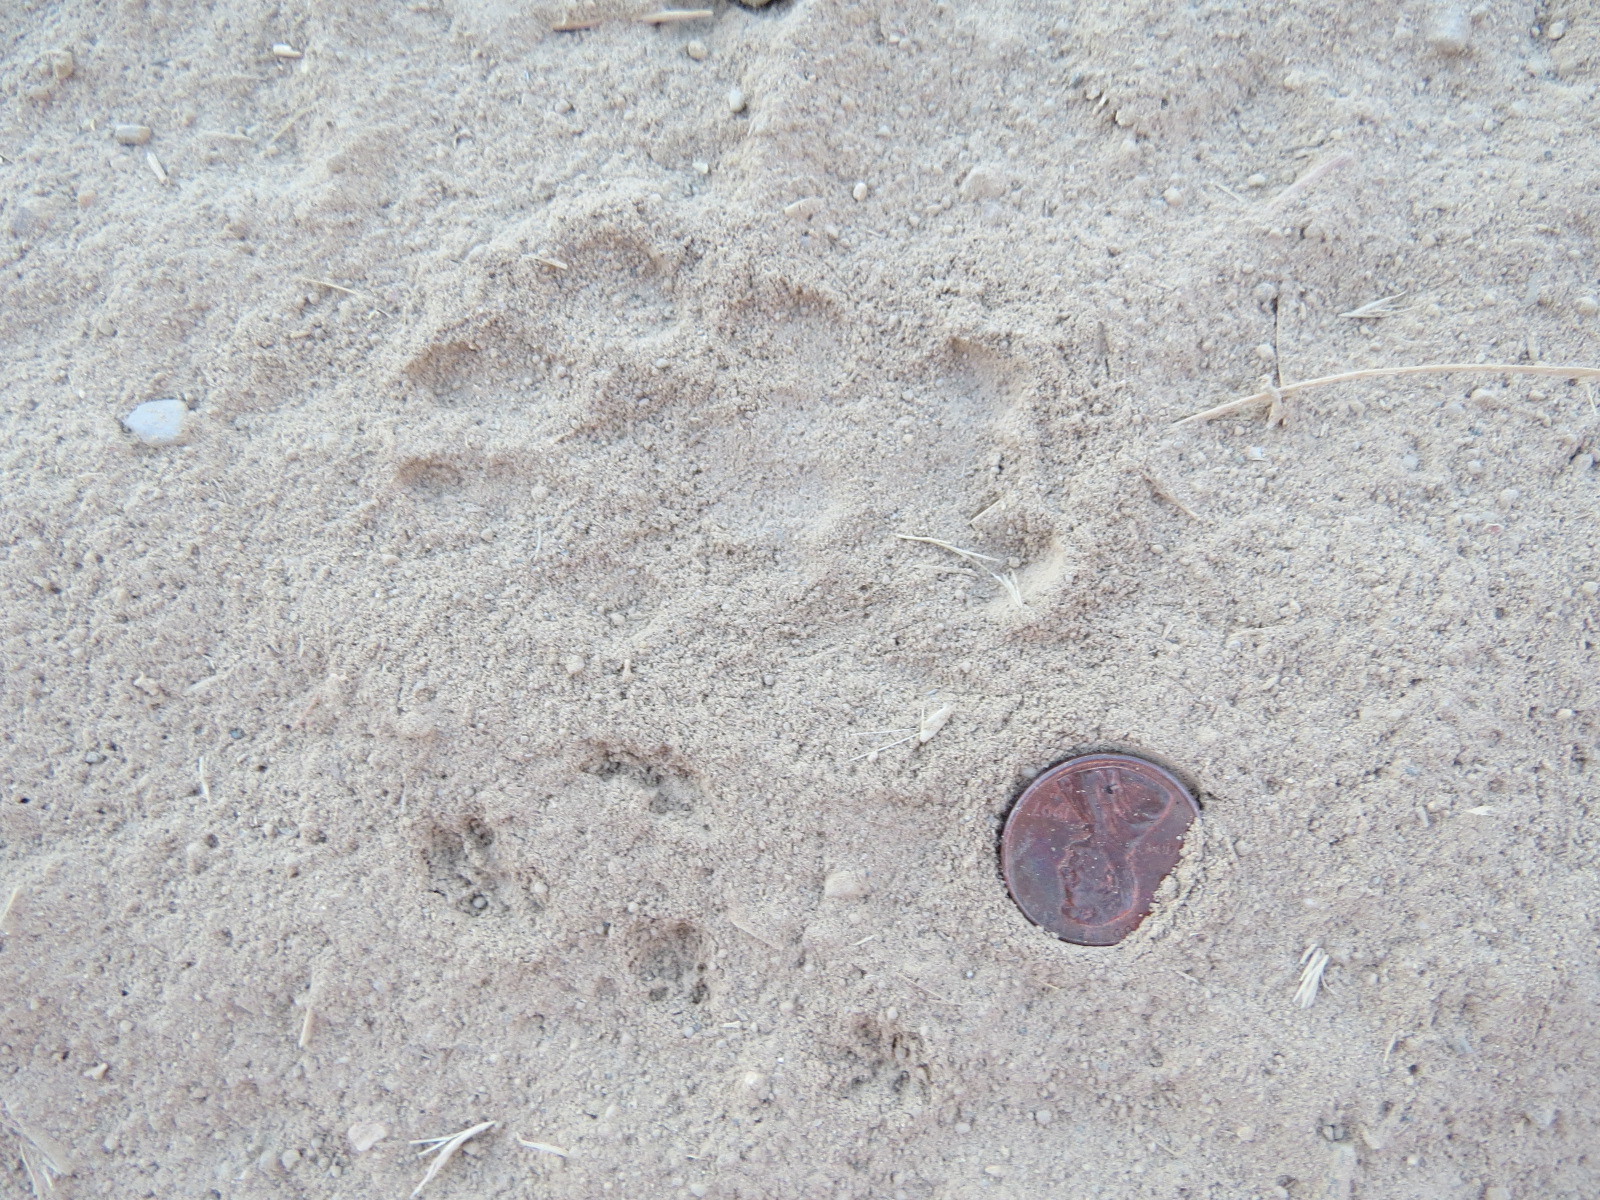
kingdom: Animalia
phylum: Chordata
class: Mammalia
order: Carnivora
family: Felidae
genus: Lynx
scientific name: Lynx rufus
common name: Bobcat
